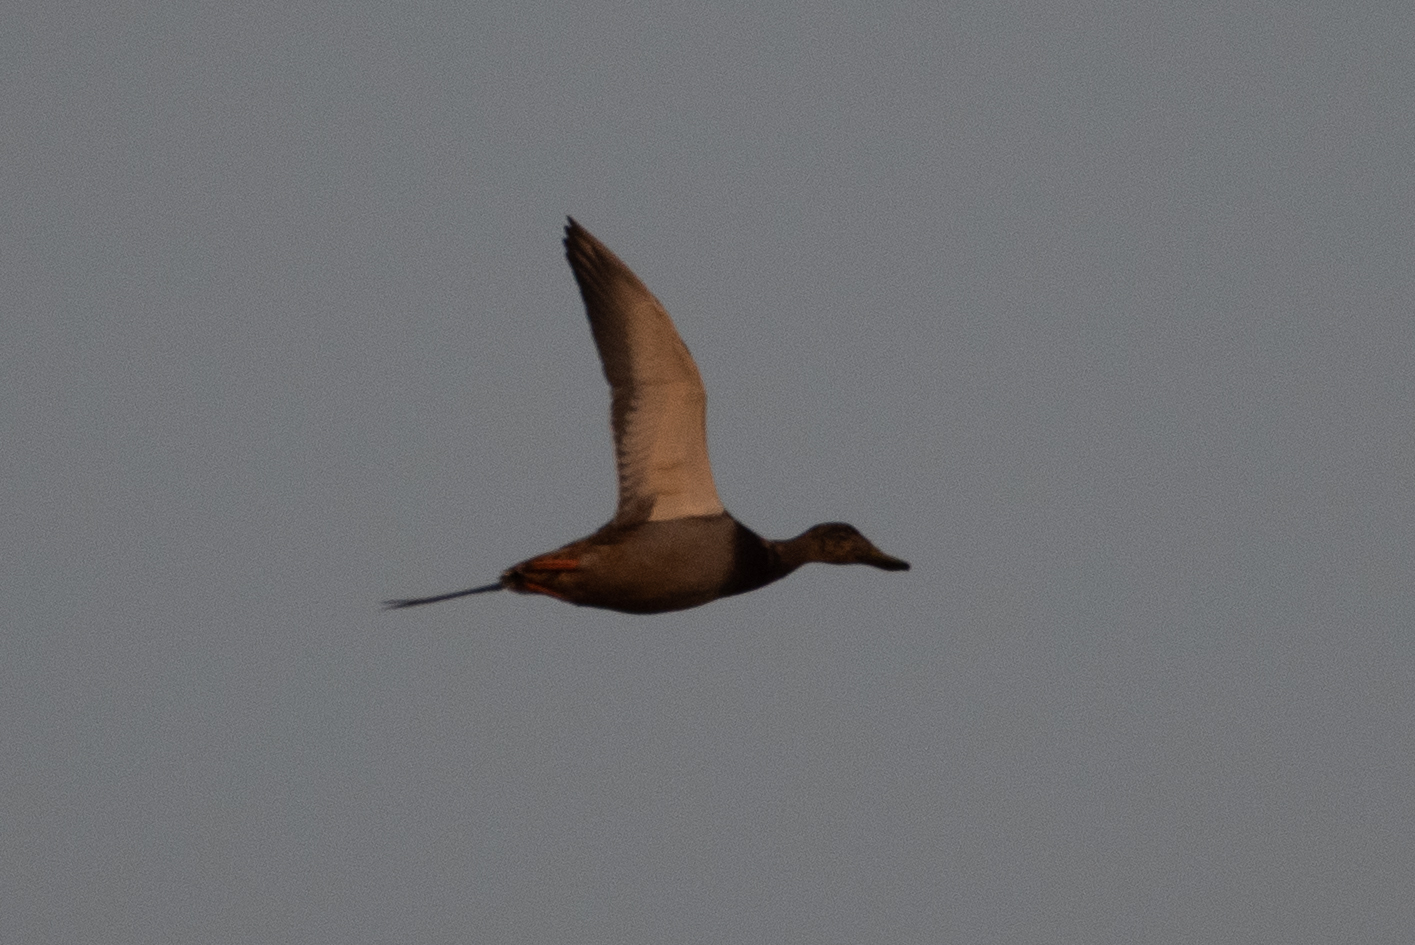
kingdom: Animalia
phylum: Chordata
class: Aves
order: Anseriformes
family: Anatidae
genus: Anas
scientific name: Anas platyrhynchos
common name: Mallard
